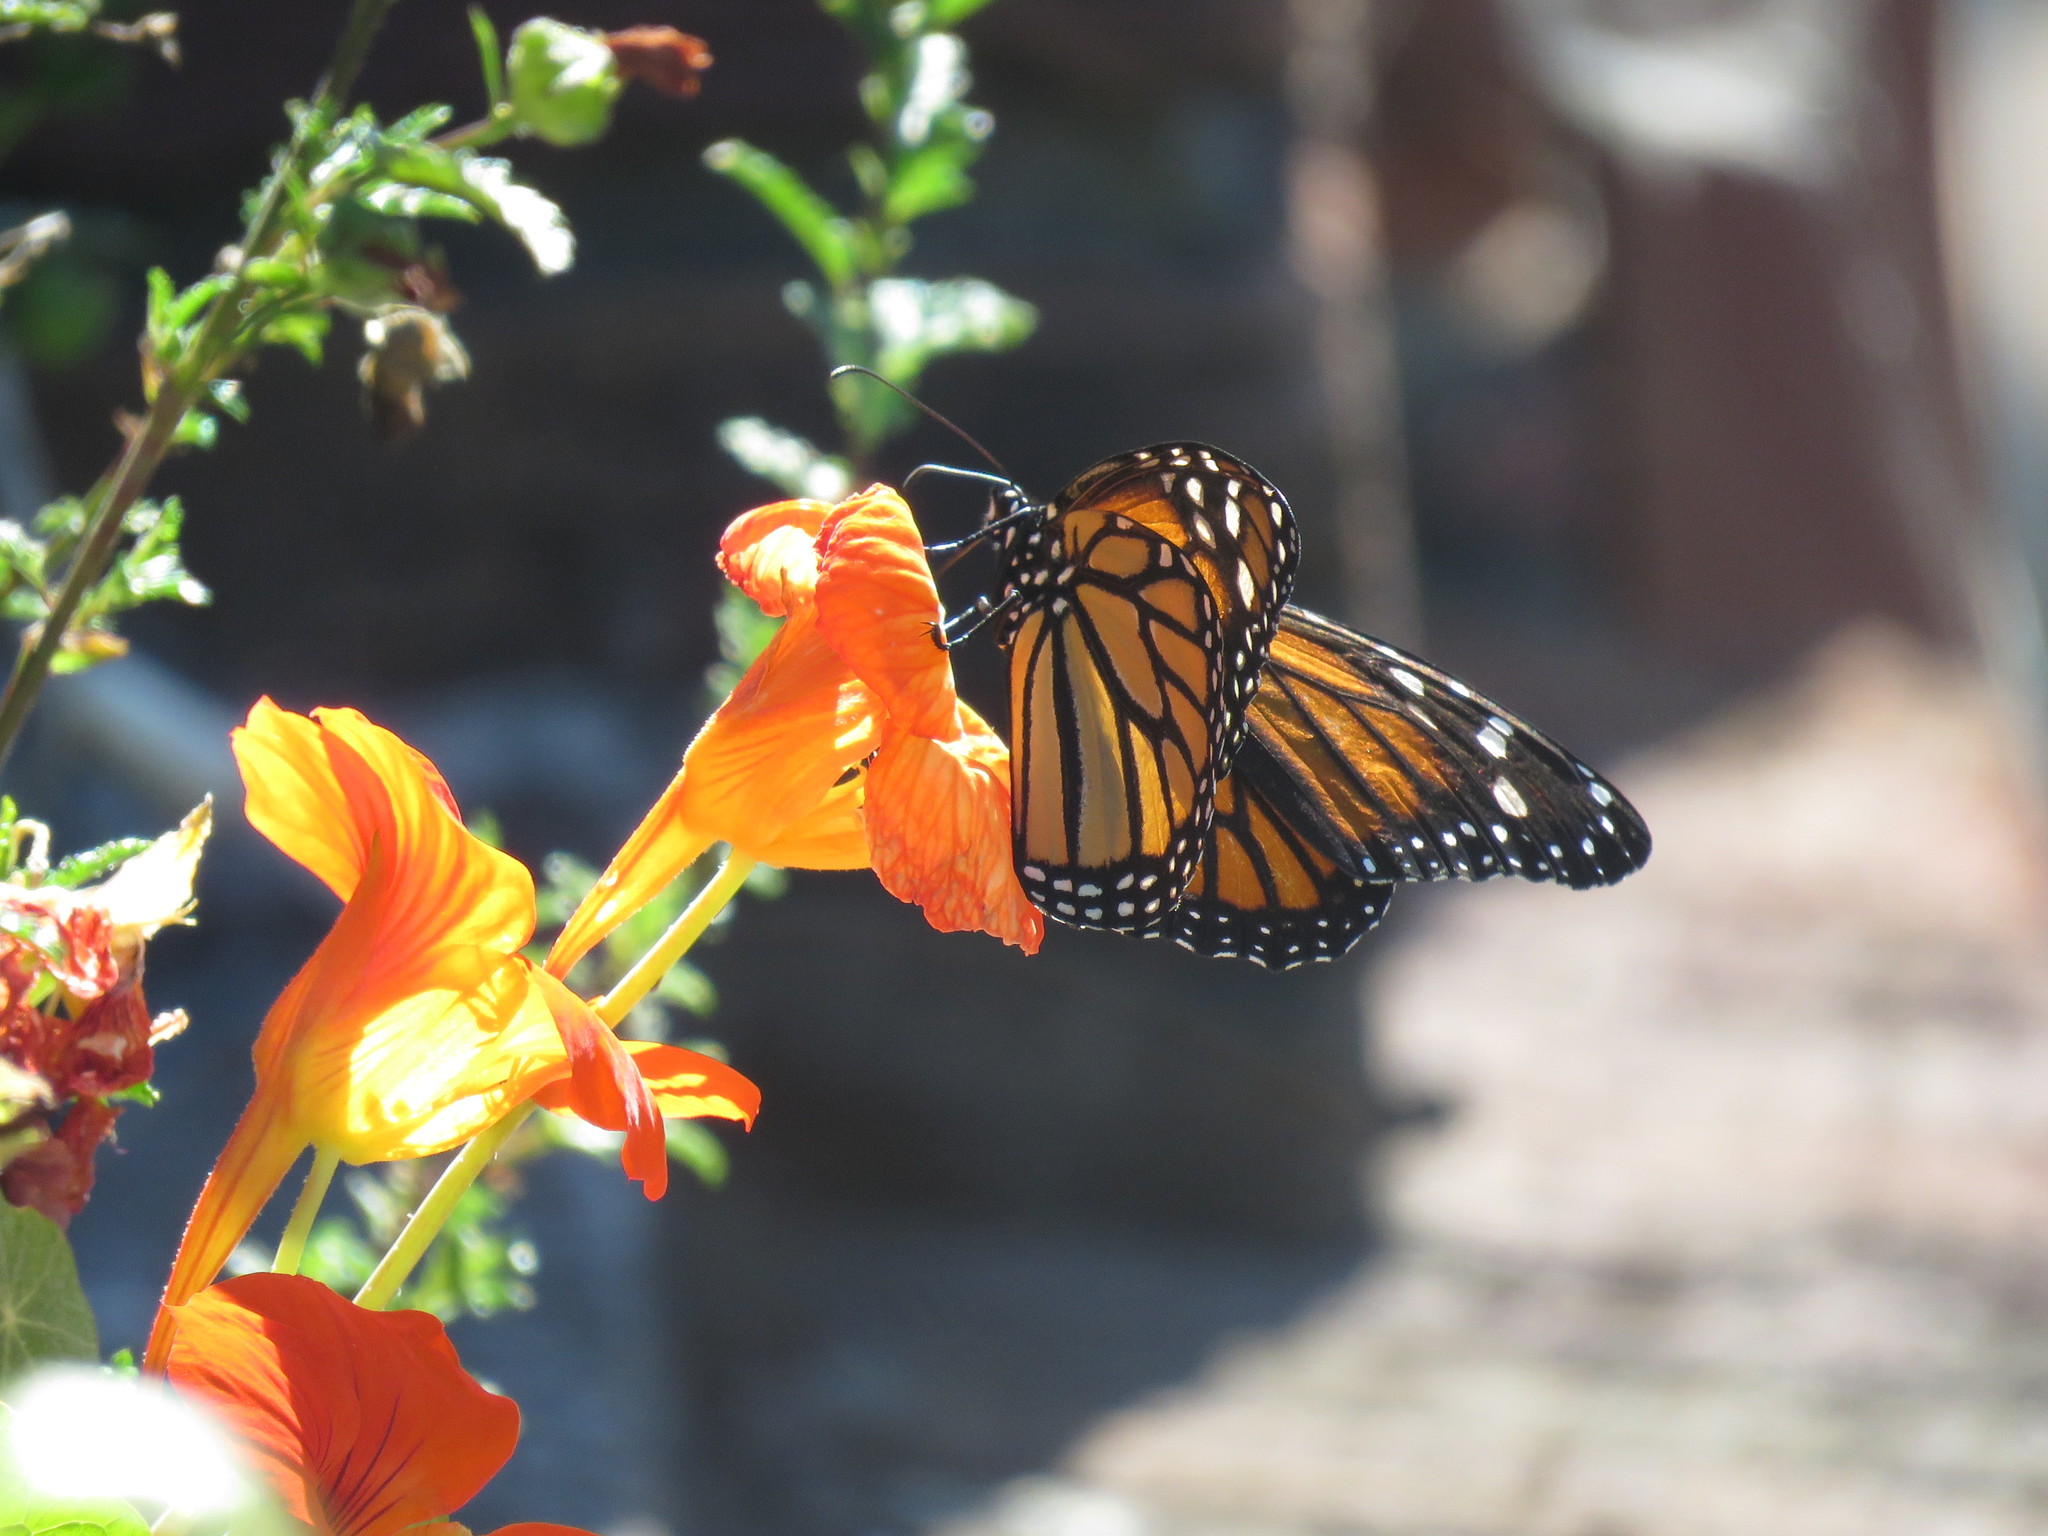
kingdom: Animalia
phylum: Arthropoda
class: Insecta
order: Lepidoptera
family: Nymphalidae
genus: Danaus
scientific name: Danaus plexippus
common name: Monarch
